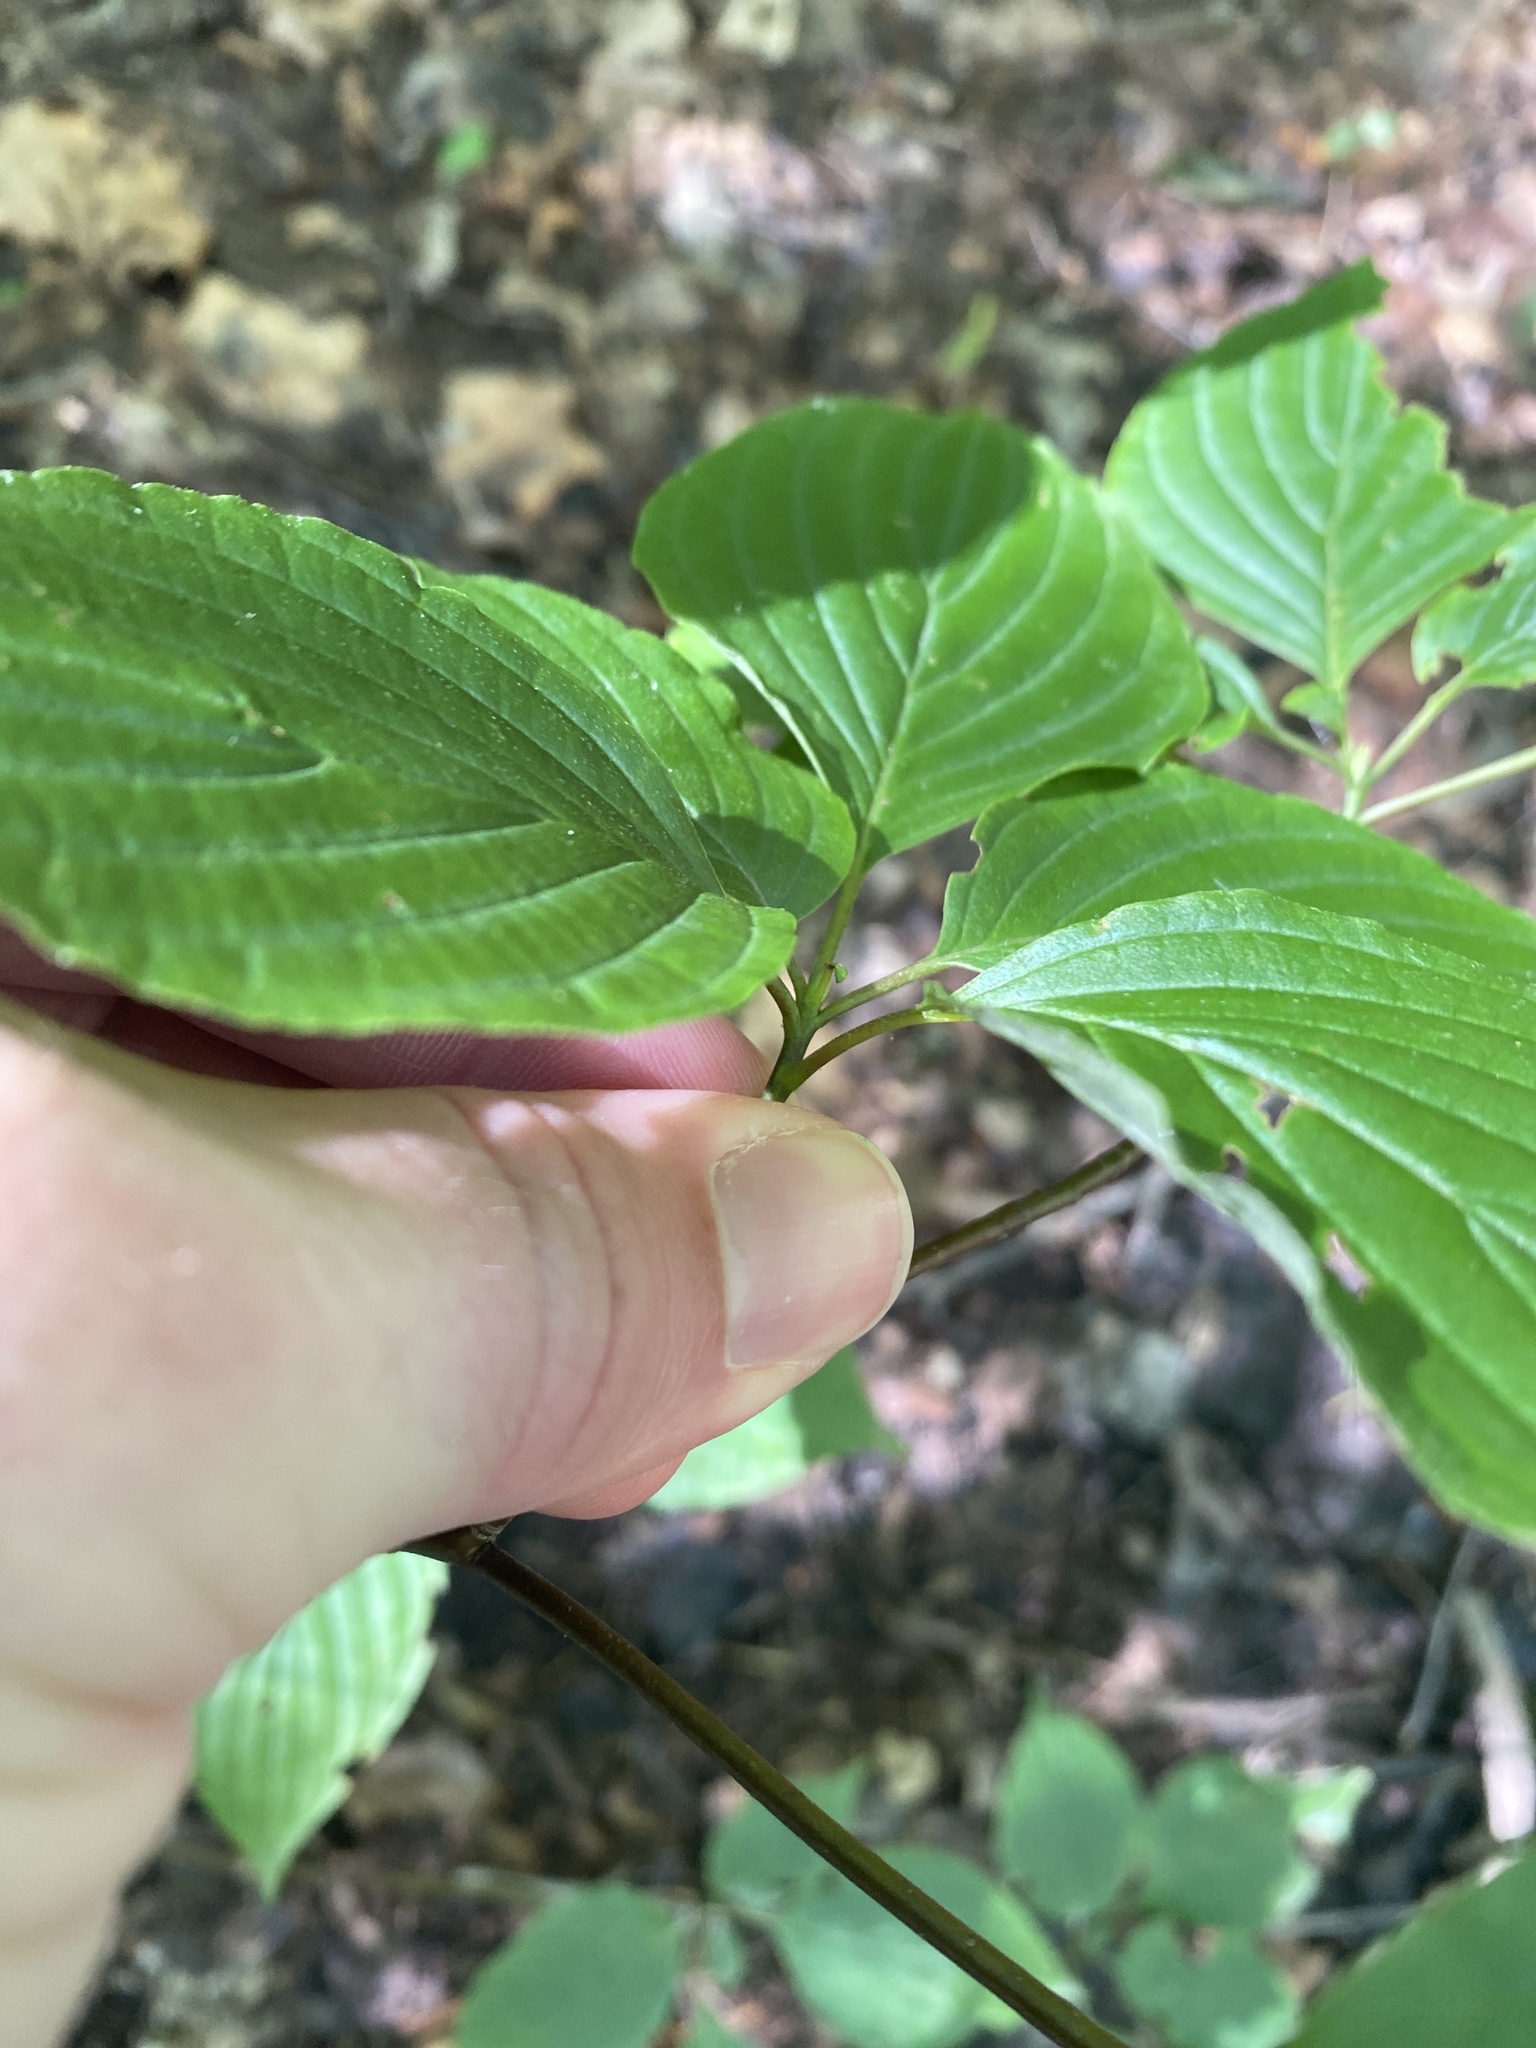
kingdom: Plantae
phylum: Tracheophyta
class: Magnoliopsida
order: Cornales
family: Cornaceae
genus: Cornus
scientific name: Cornus alternifolia
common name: Pagoda dogwood
